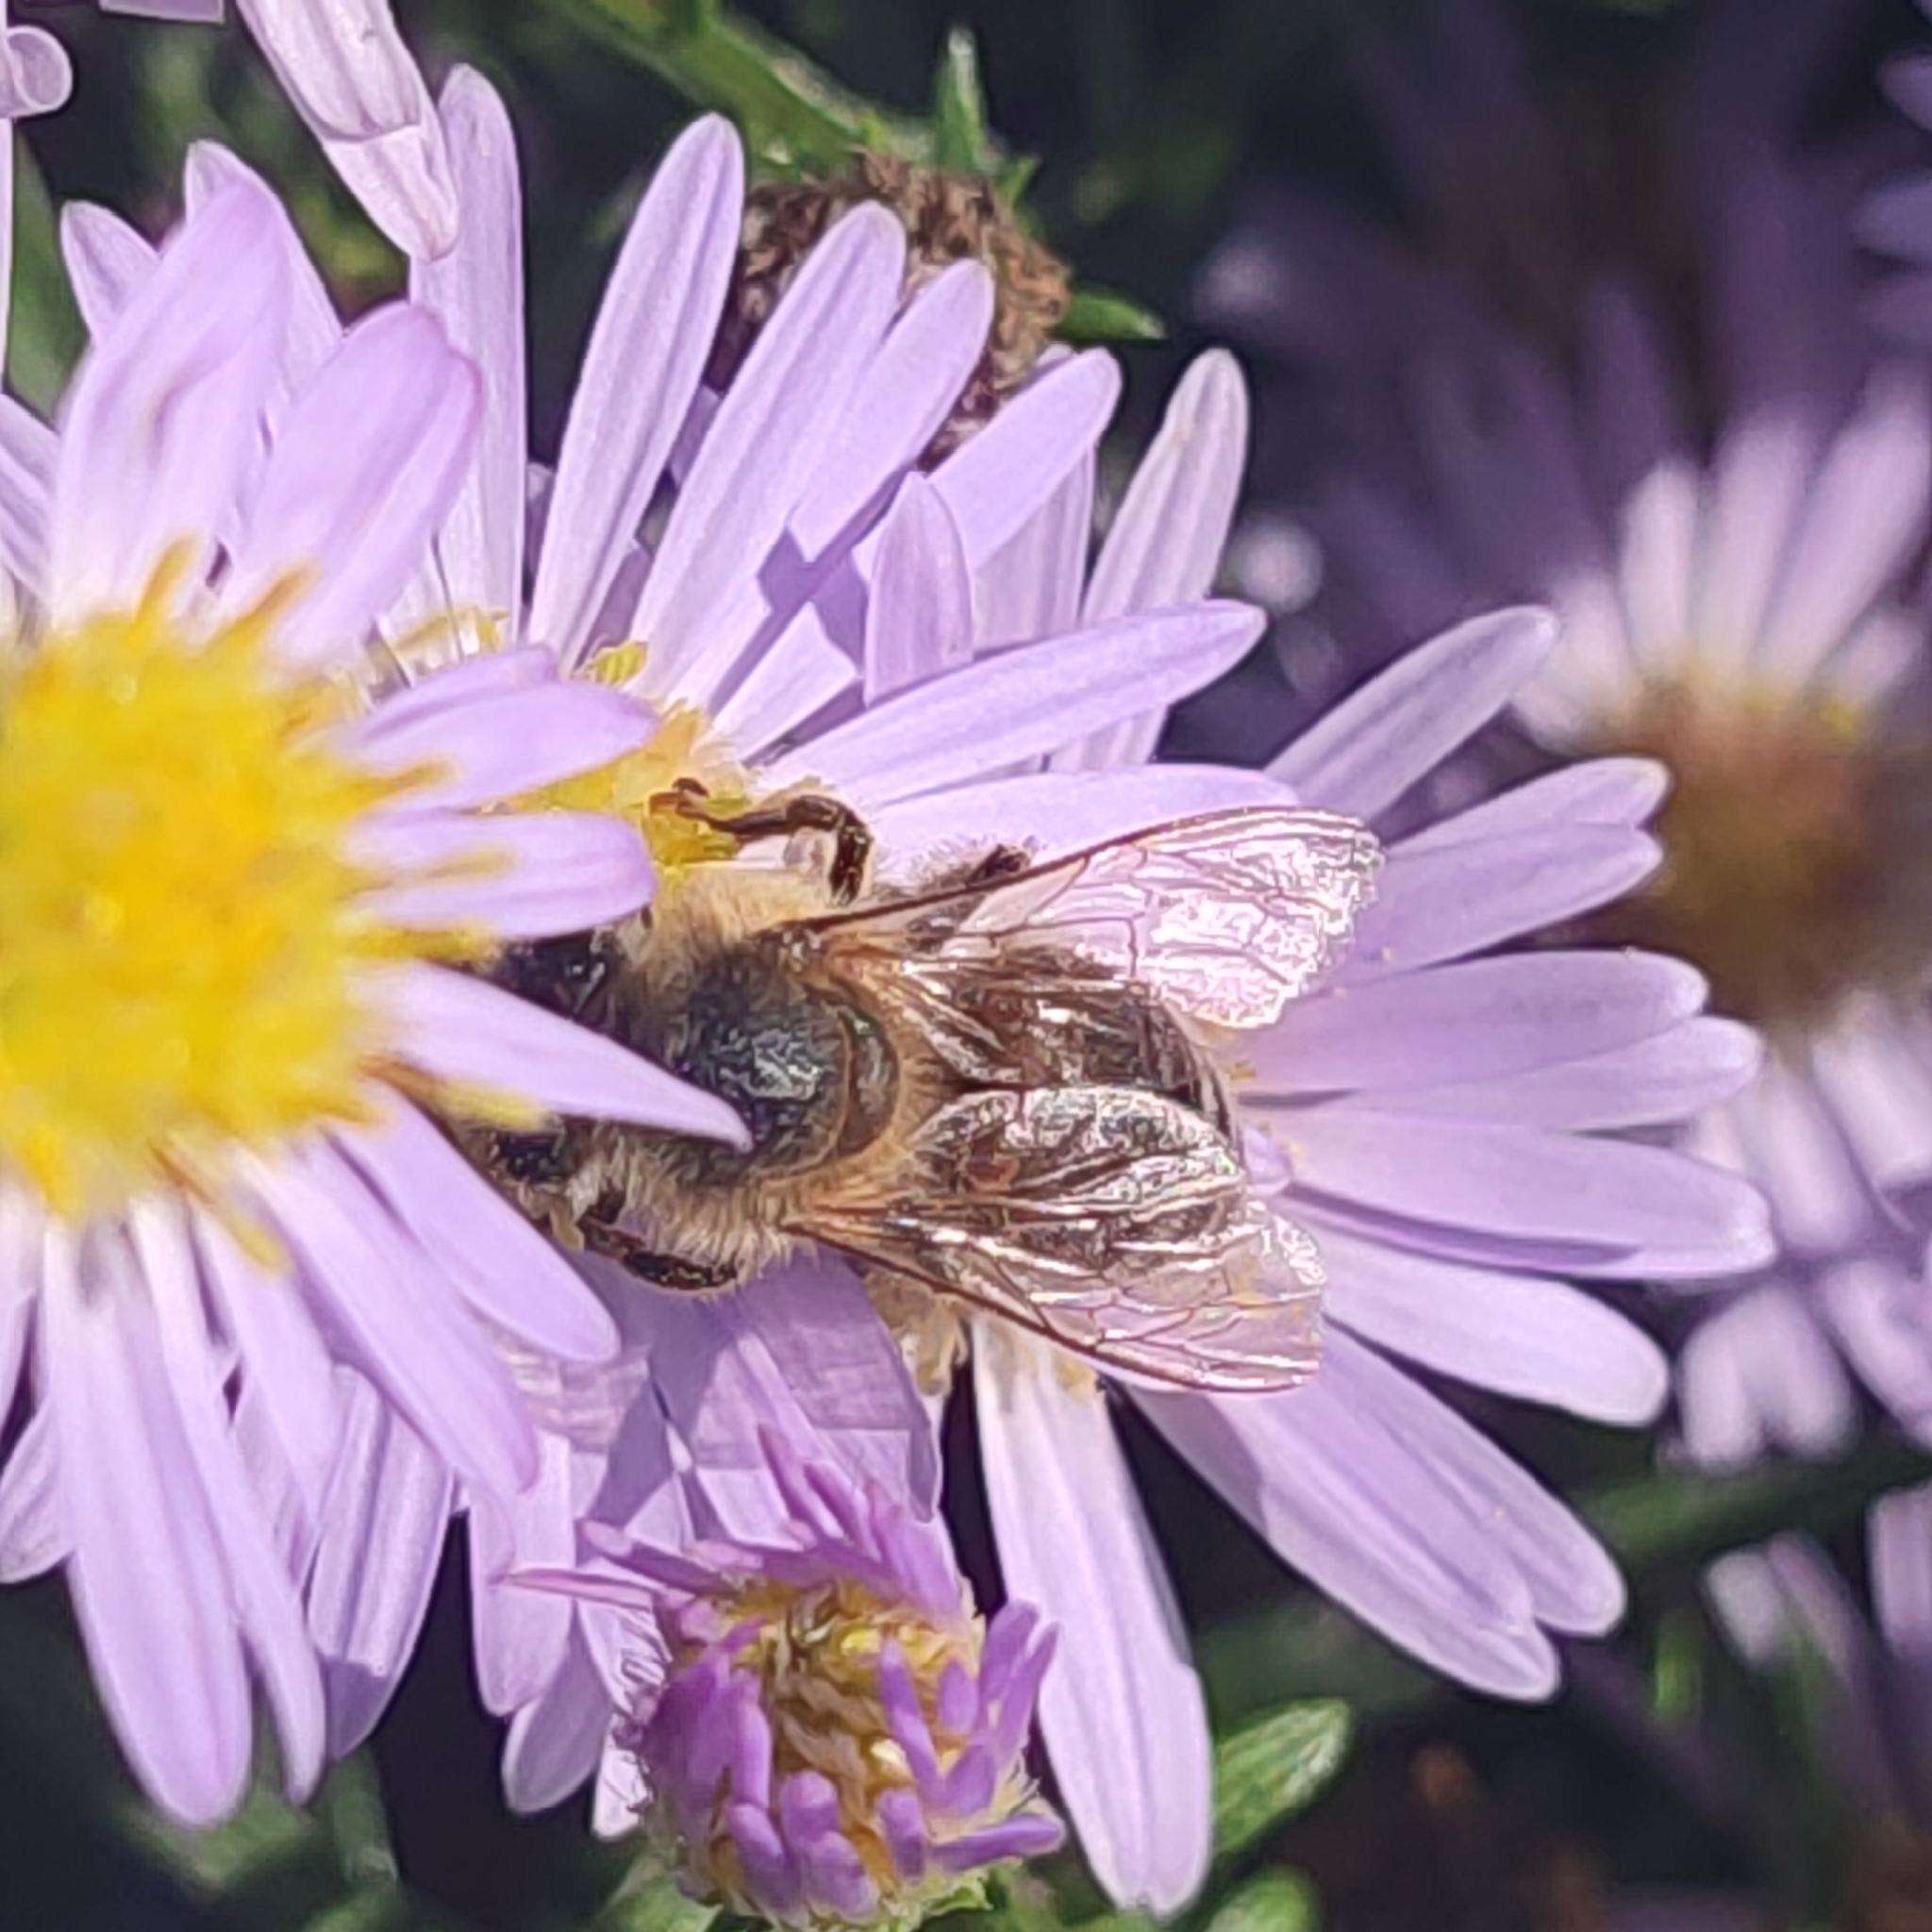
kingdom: Animalia
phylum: Arthropoda
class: Insecta
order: Hymenoptera
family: Apidae
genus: Apis
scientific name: Apis mellifera
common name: Honey bee
